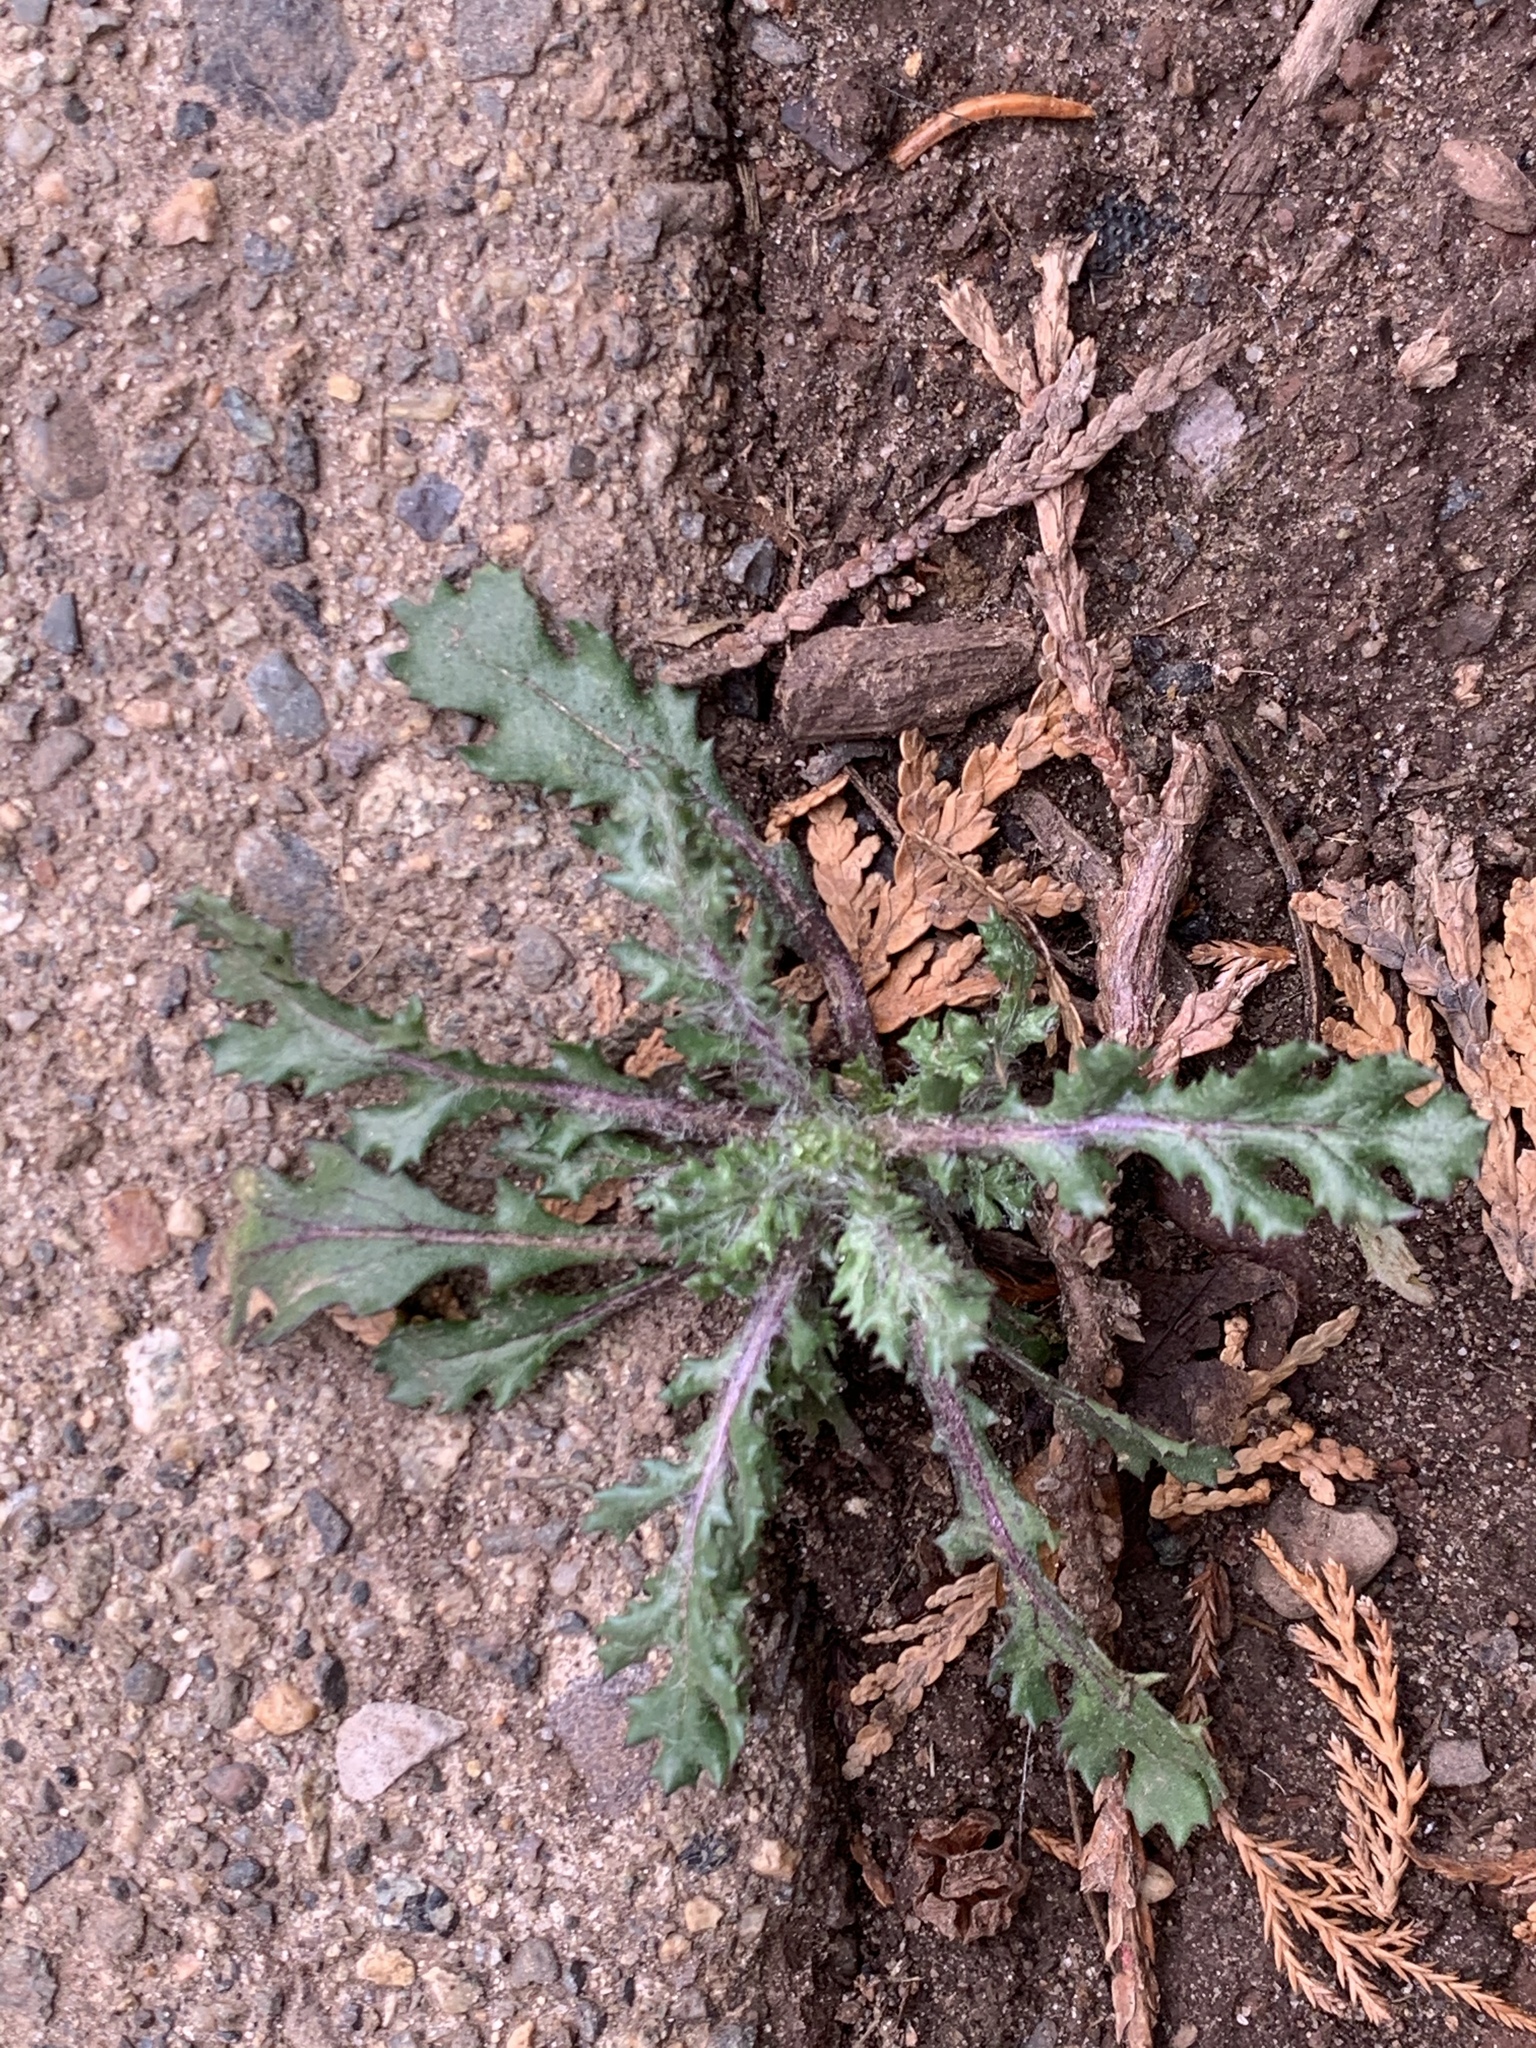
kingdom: Plantae
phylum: Tracheophyta
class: Magnoliopsida
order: Asterales
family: Asteraceae
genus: Senecio
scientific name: Senecio vulgaris
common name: Old-man-in-the-spring
